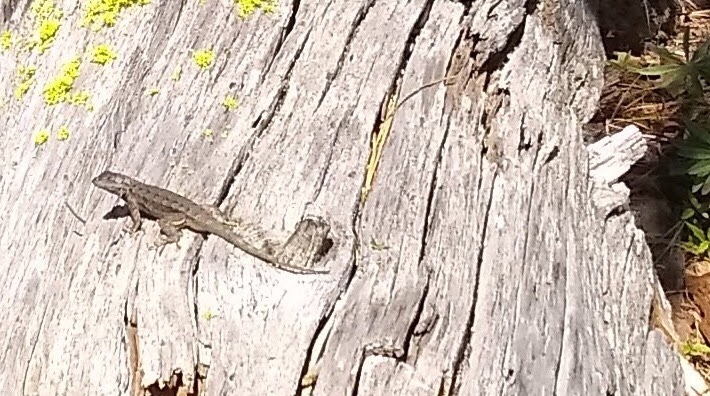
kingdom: Animalia
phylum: Chordata
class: Squamata
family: Phrynosomatidae
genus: Sceloporus
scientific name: Sceloporus occidentalis
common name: Western fence lizard
